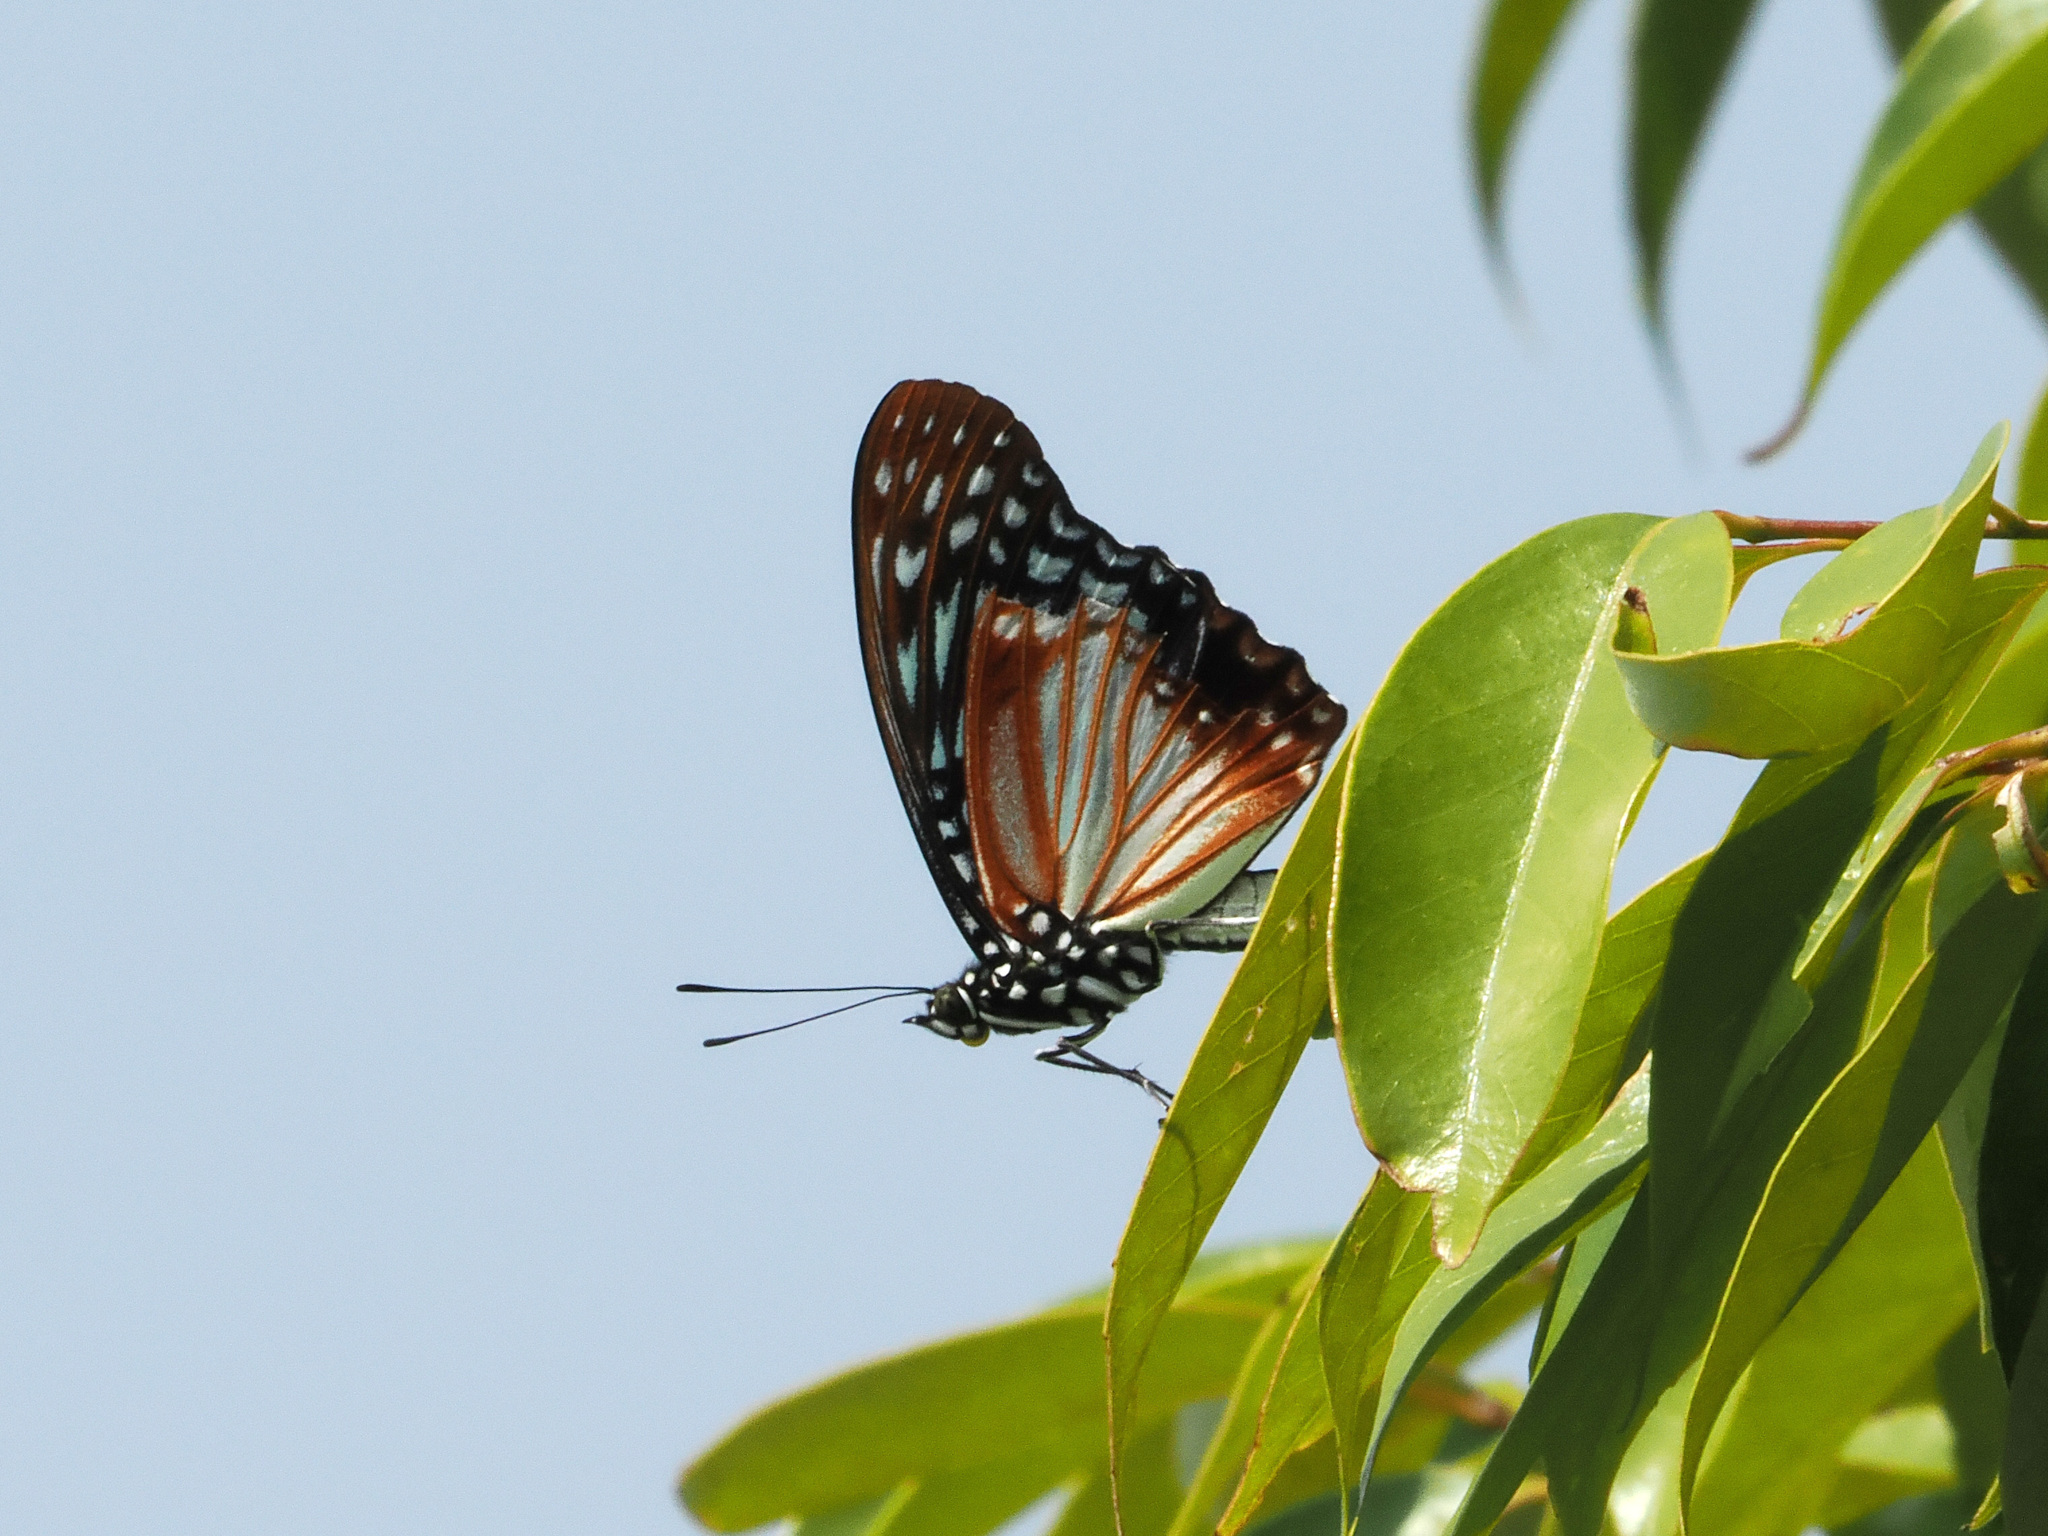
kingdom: Animalia
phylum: Arthropoda
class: Insecta
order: Lepidoptera
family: Nymphalidae
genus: Hestinalis
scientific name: Hestinalis nama
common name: Circe
